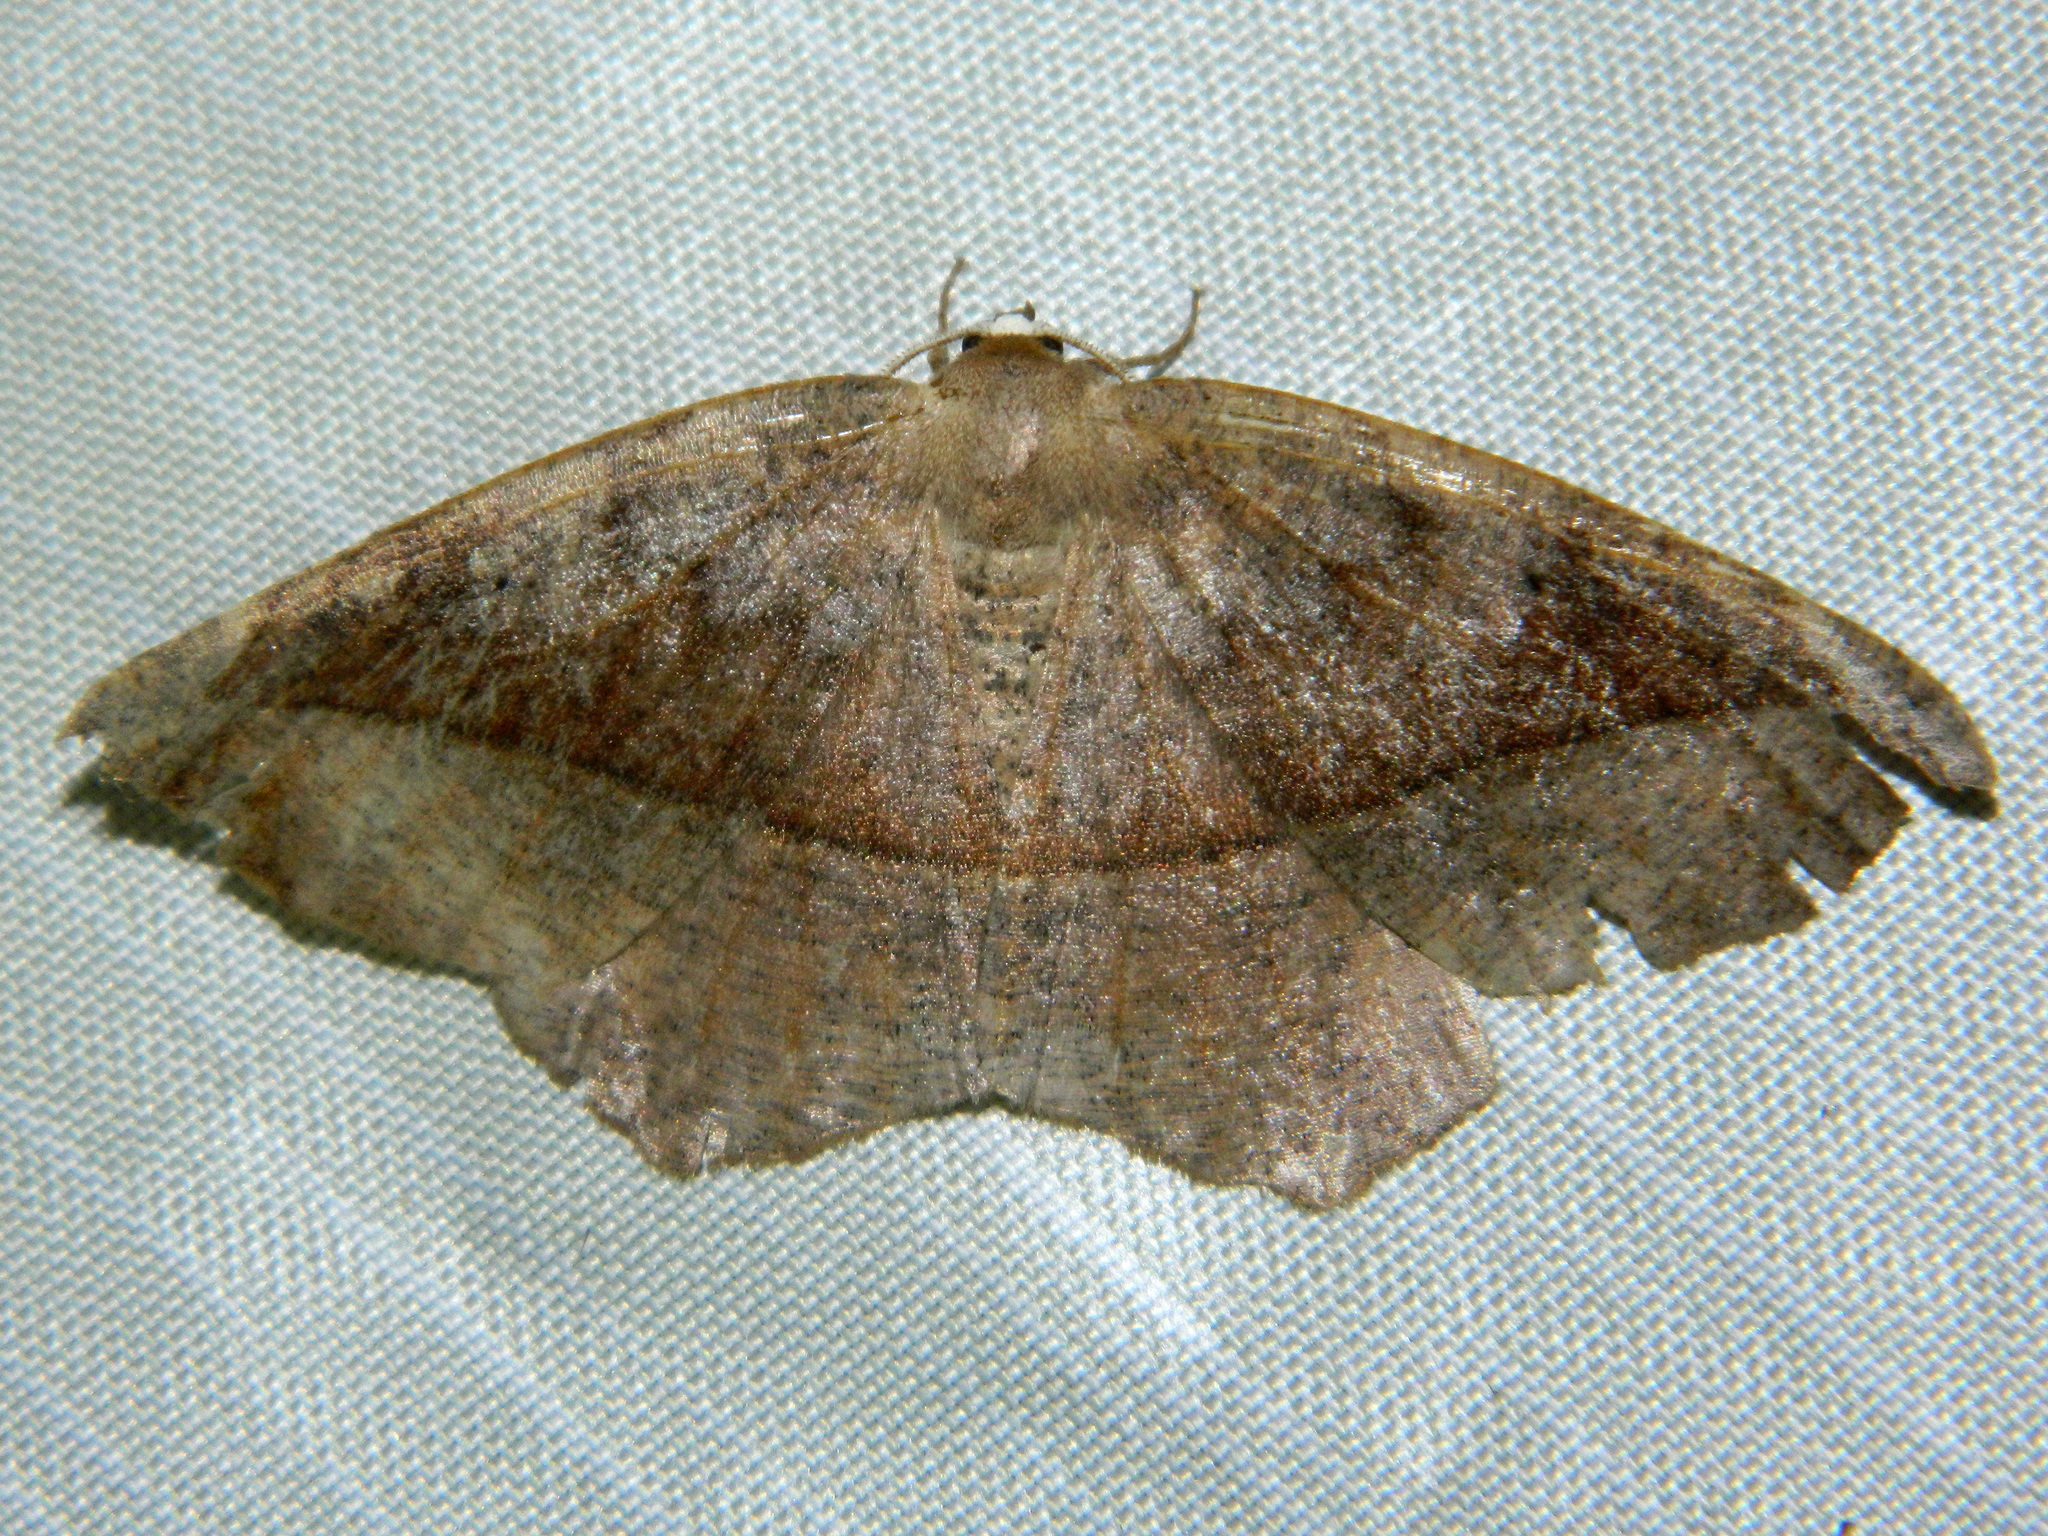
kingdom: Animalia
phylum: Arthropoda
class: Insecta
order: Lepidoptera
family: Geometridae
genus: Eutrapela
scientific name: Eutrapela clemataria
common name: Curved-toothed geometer
